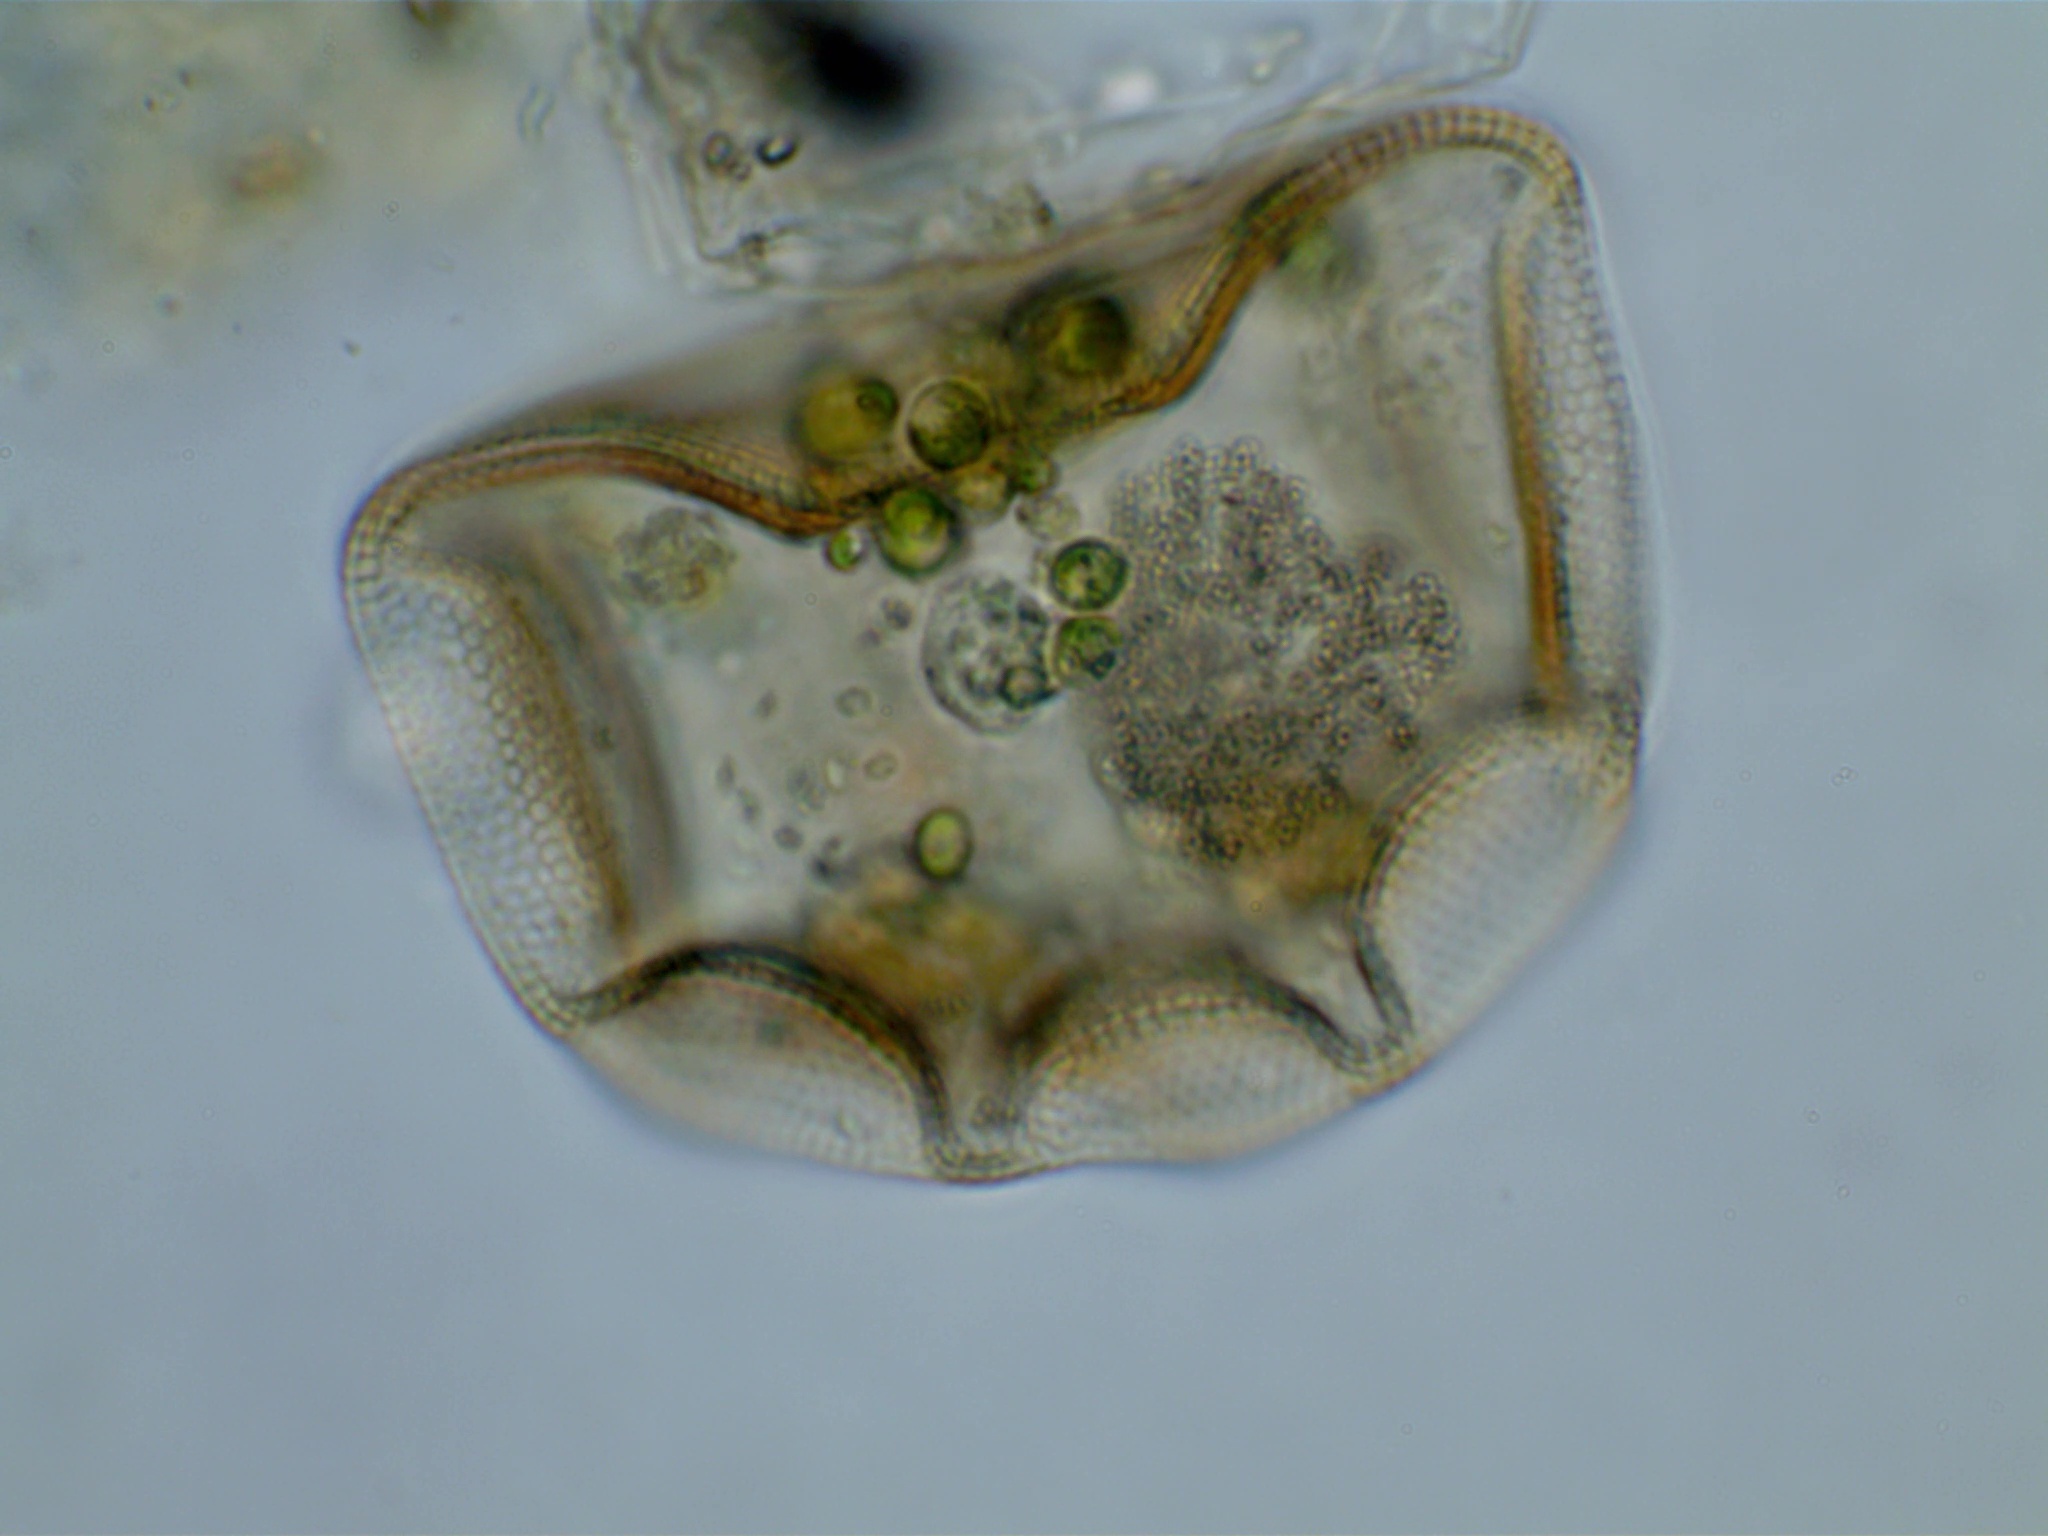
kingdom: Protozoa
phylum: Amoebozoa
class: Lobosa
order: Arcellinida
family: Arcellidae
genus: Arcella
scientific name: Arcella conica
